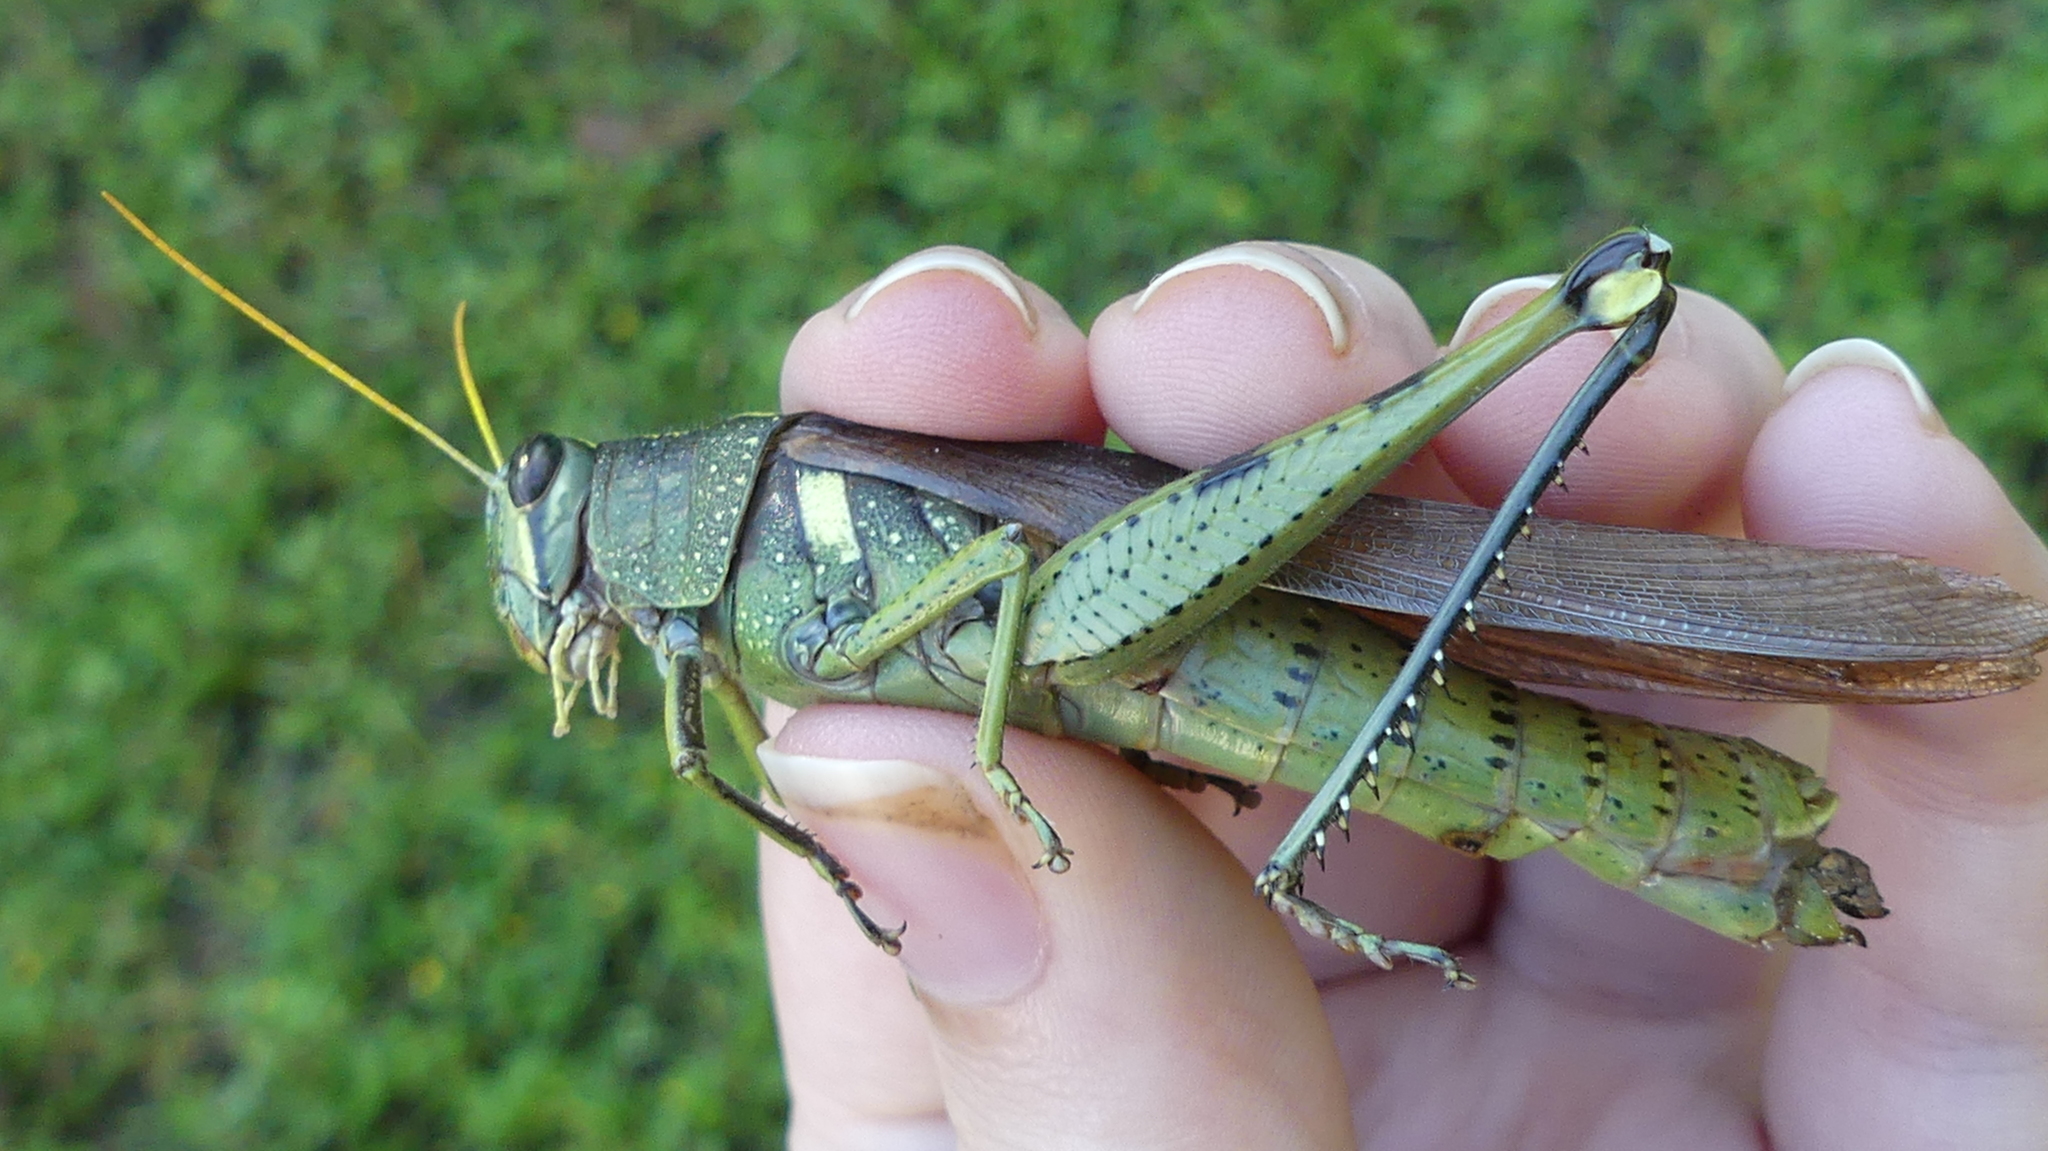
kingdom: Animalia
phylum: Arthropoda
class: Insecta
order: Orthoptera
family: Acrididae
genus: Schistocerca
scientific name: Schistocerca obscura
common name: Obscure bird grasshopper
